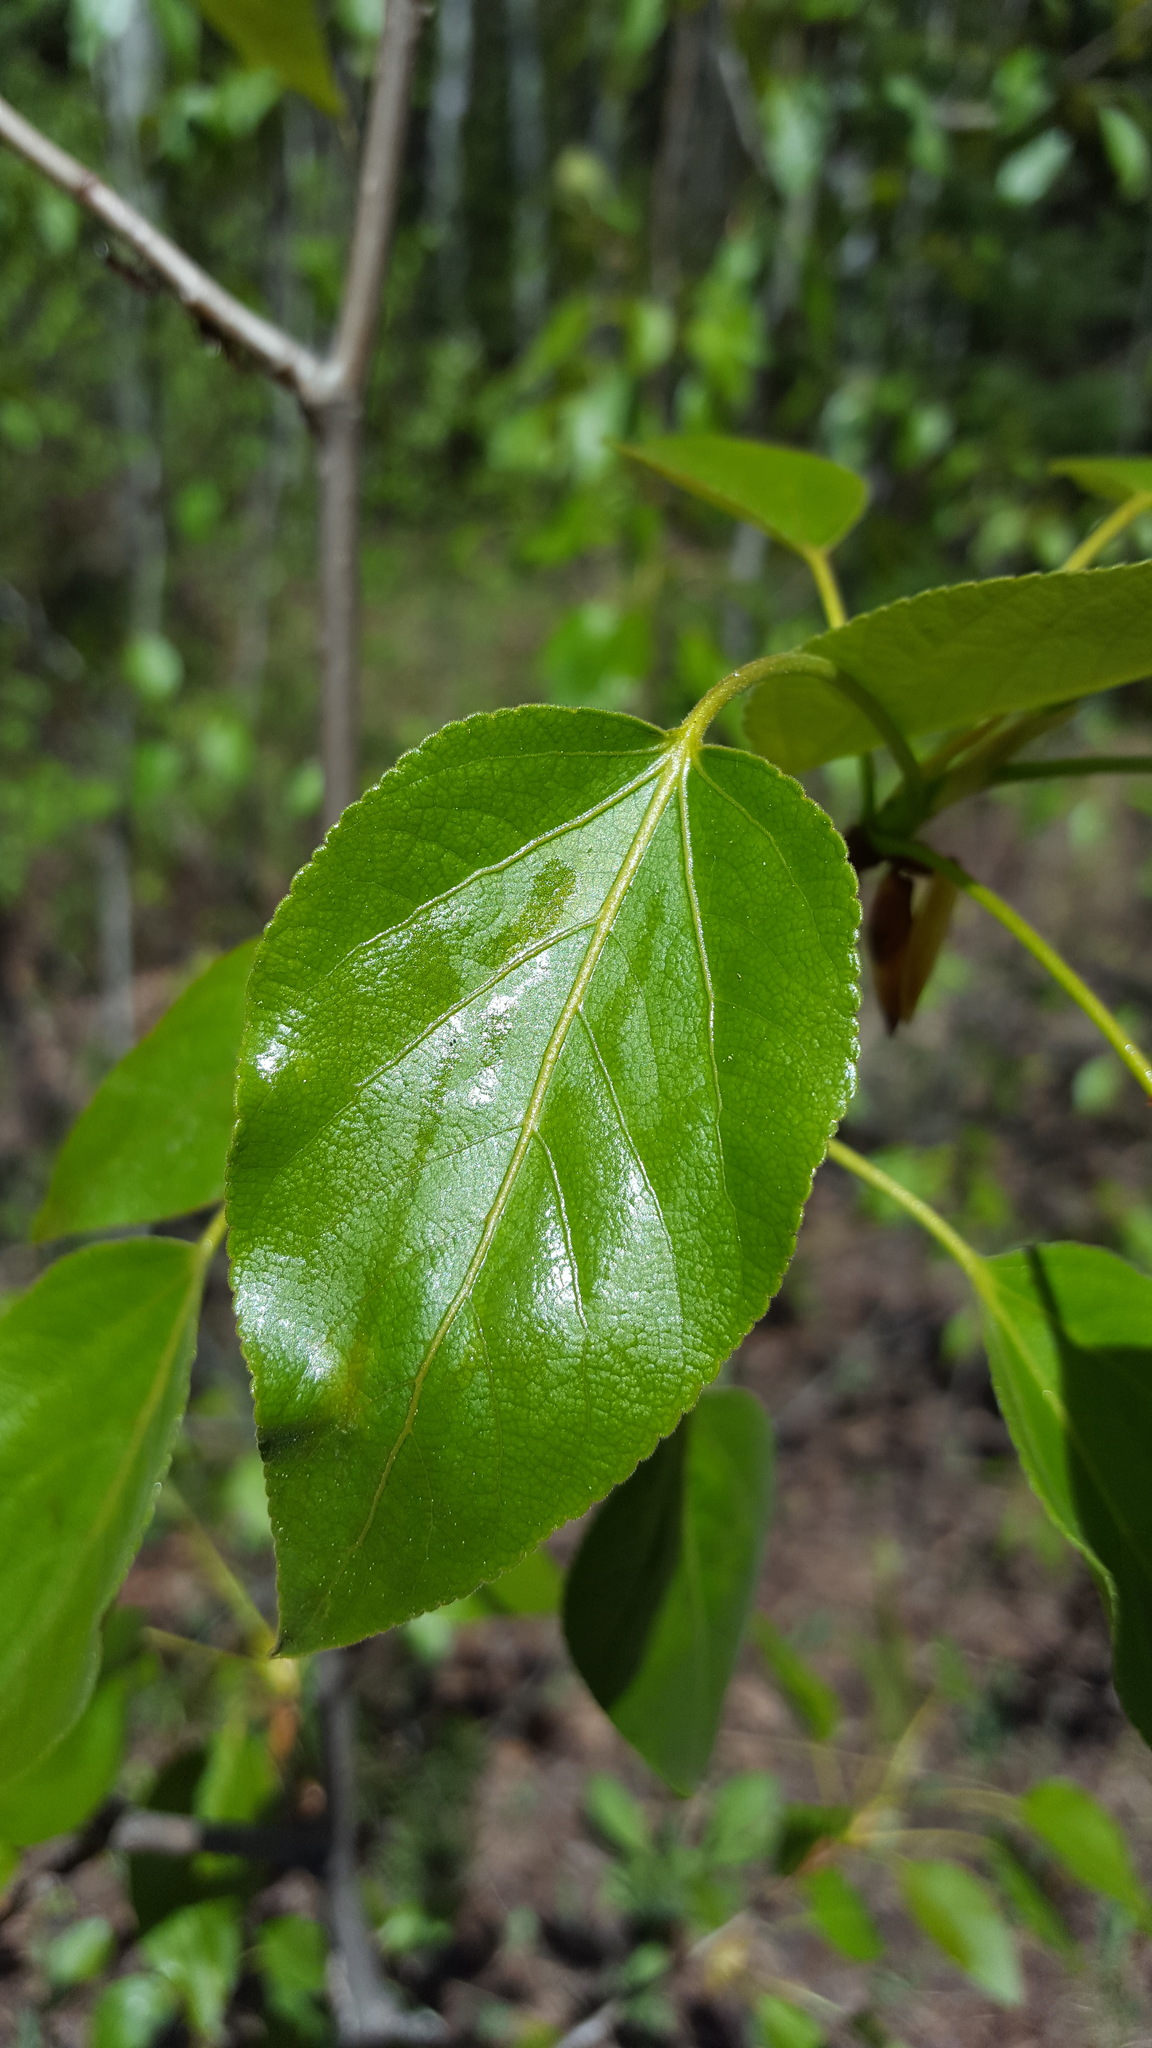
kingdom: Plantae
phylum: Tracheophyta
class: Magnoliopsida
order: Malpighiales
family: Salicaceae
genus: Populus
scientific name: Populus balsamifera
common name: Balsam poplar
